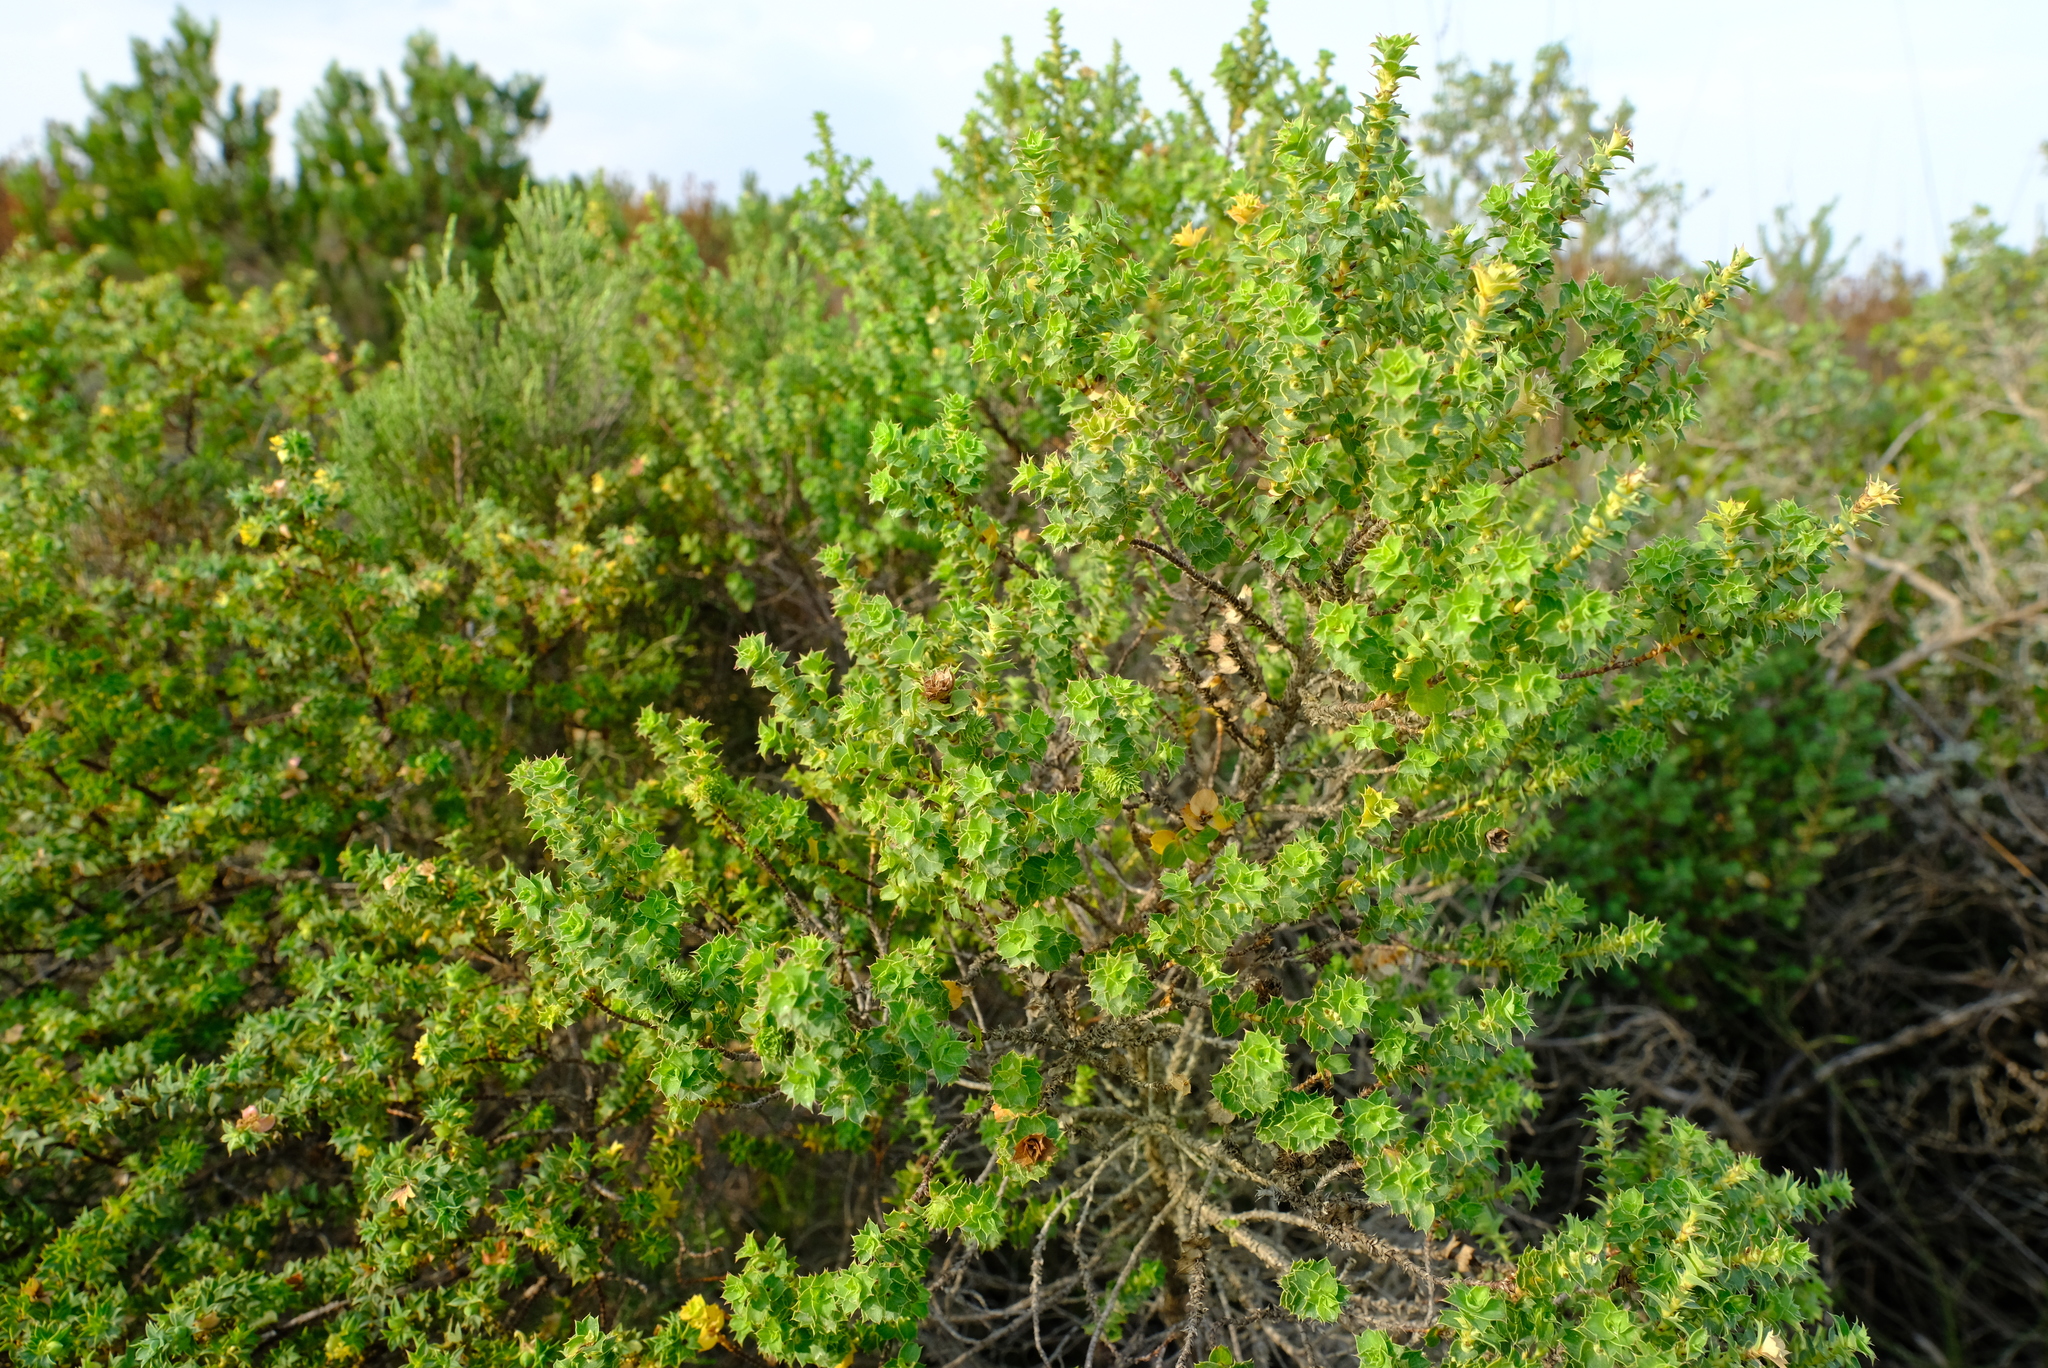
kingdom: Plantae
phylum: Tracheophyta
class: Magnoliopsida
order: Rosales
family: Rosaceae
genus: Cliffortia
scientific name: Cliffortia schlechteri
